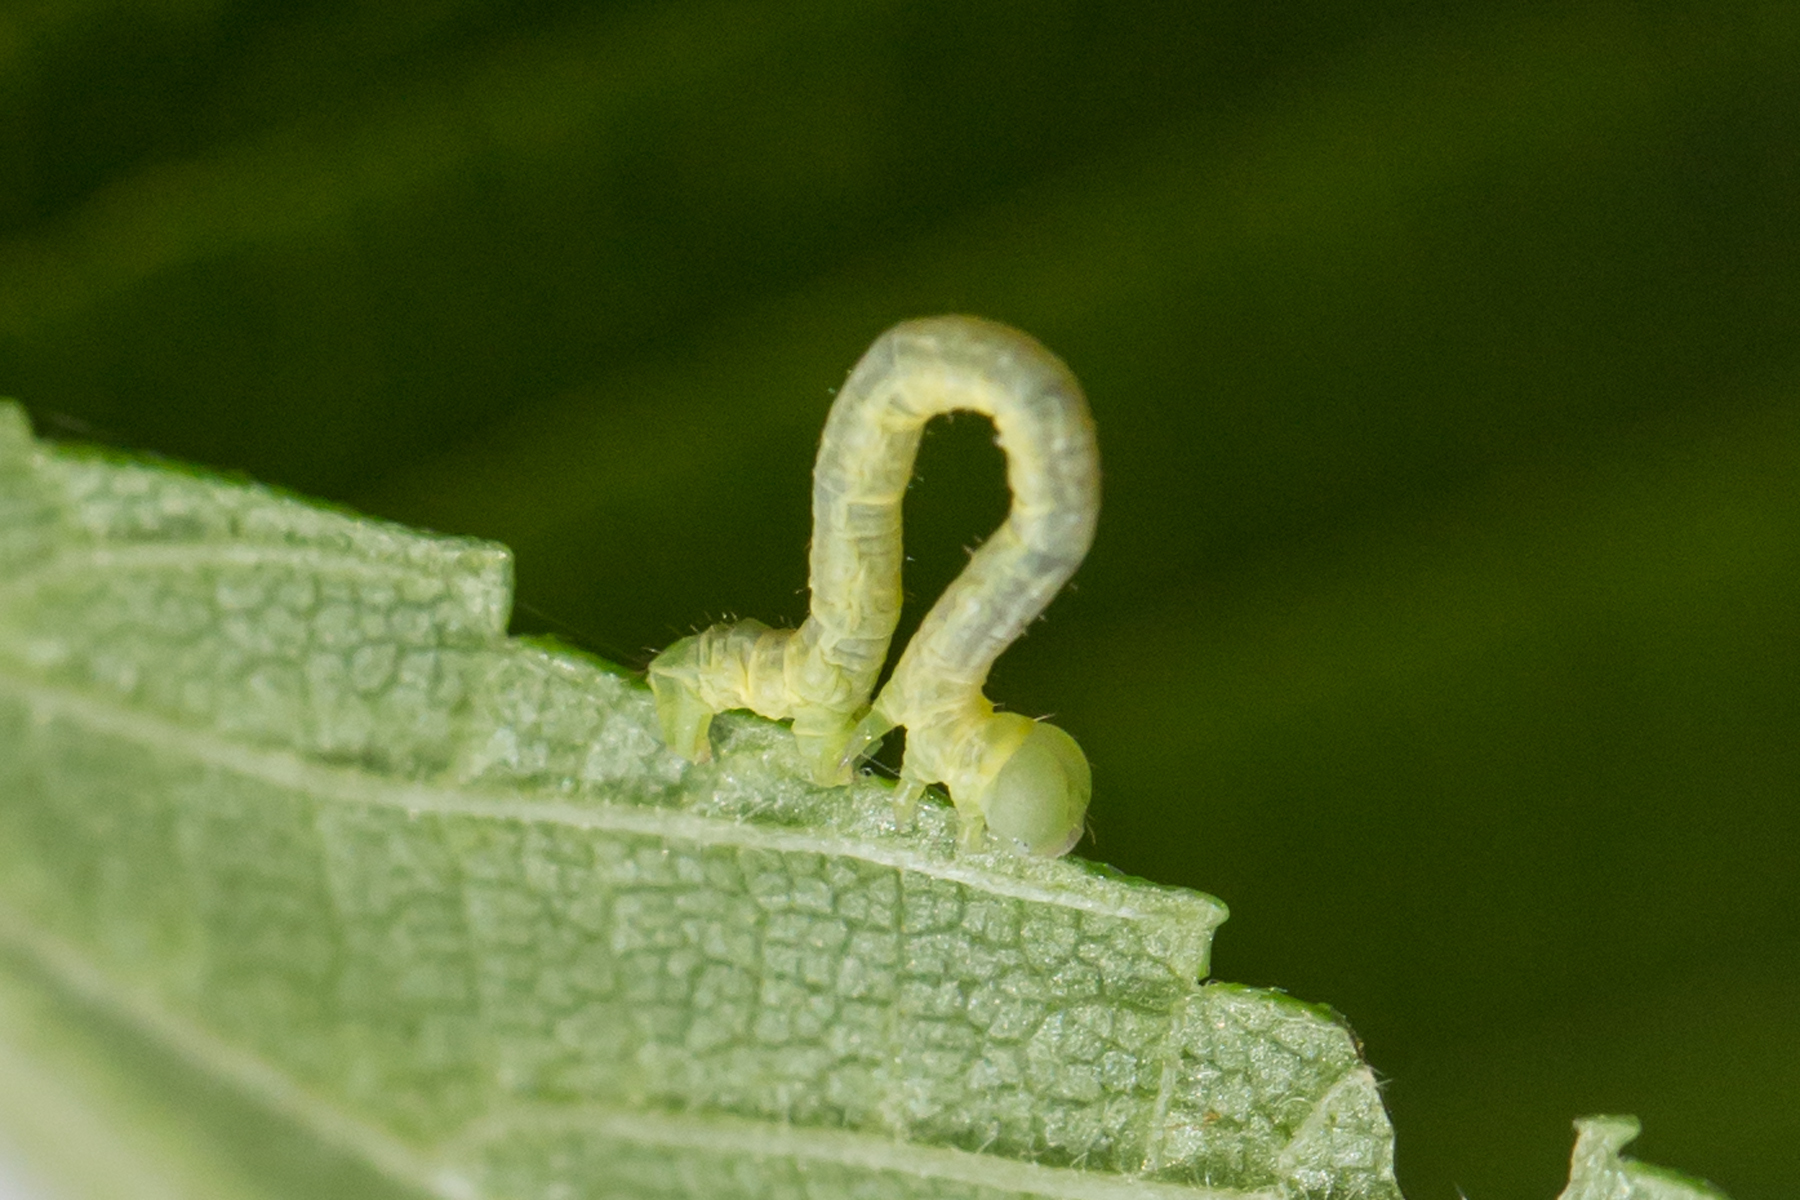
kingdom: Animalia
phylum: Arthropoda
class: Insecta
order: Lepidoptera
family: Geometridae
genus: Ennomos
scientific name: Ennomos subsignaria
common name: Elm spanworm
